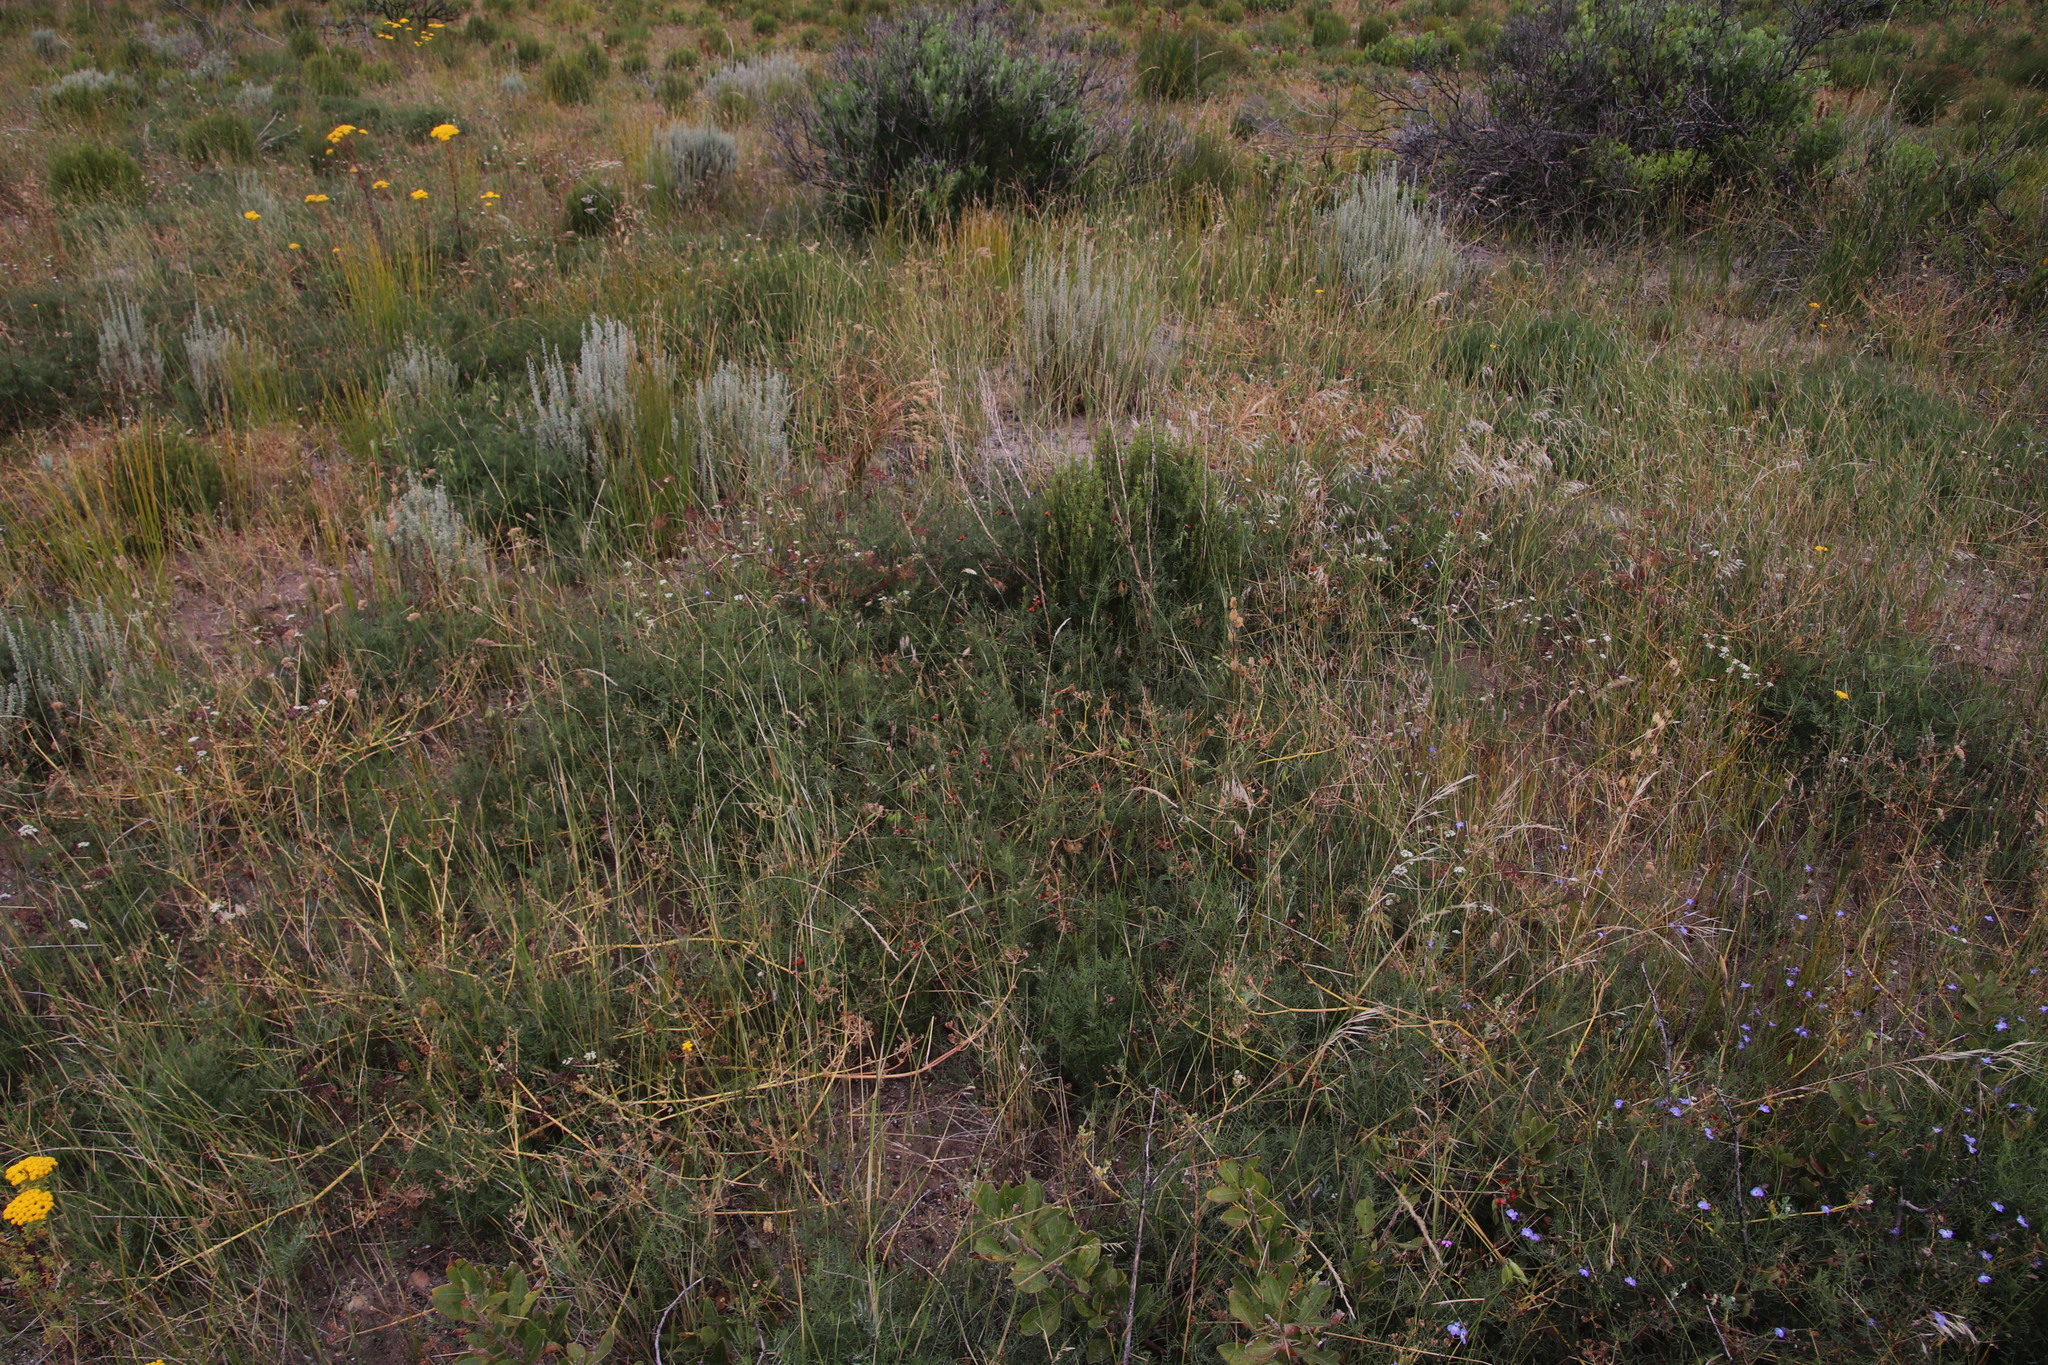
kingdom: Plantae
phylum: Tracheophyta
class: Magnoliopsida
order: Fabales
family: Fabaceae
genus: Lessertia
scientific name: Lessertia miniata
